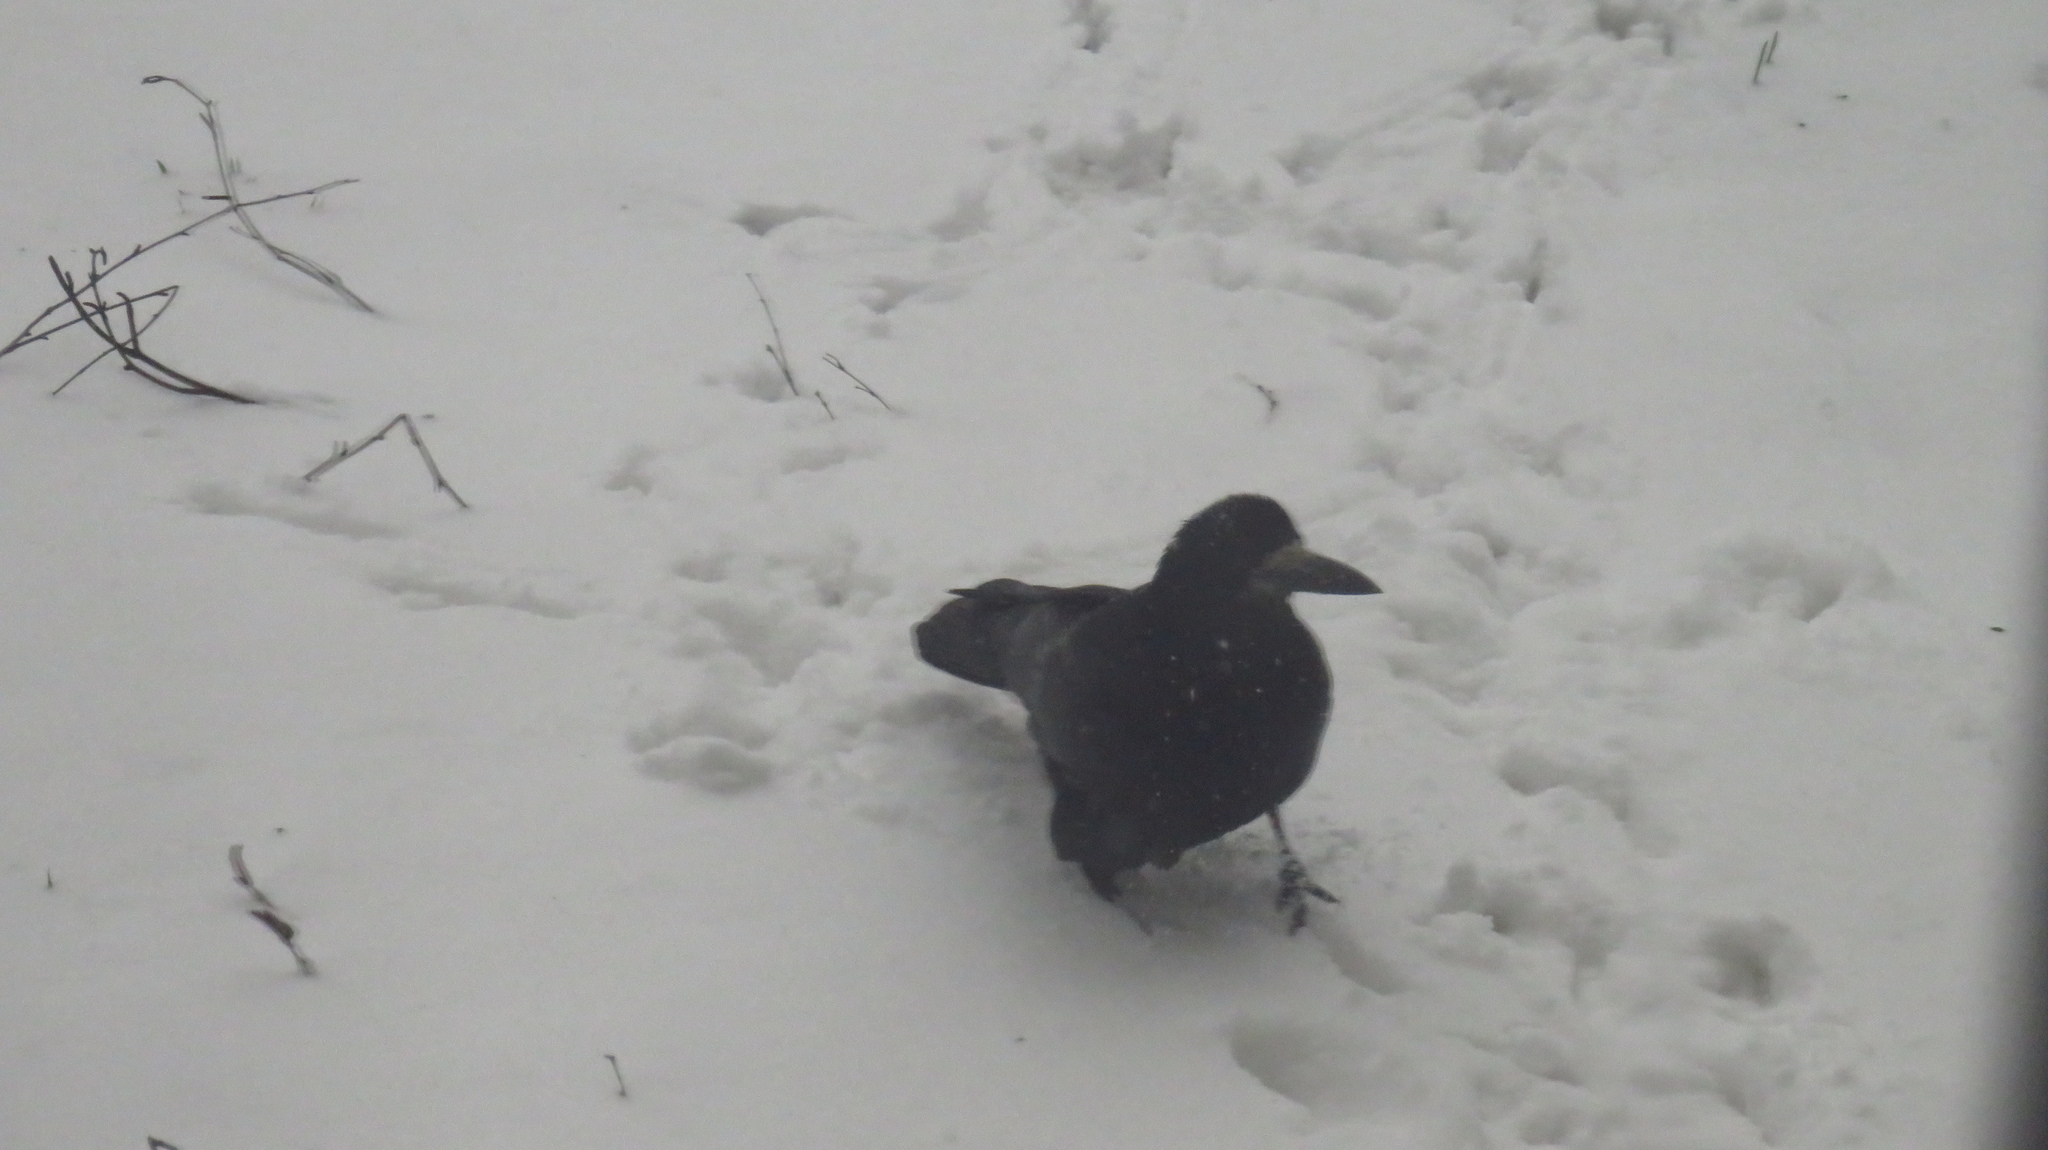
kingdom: Animalia
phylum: Chordata
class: Aves
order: Passeriformes
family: Corvidae
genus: Corvus
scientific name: Corvus frugilegus
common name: Rook
